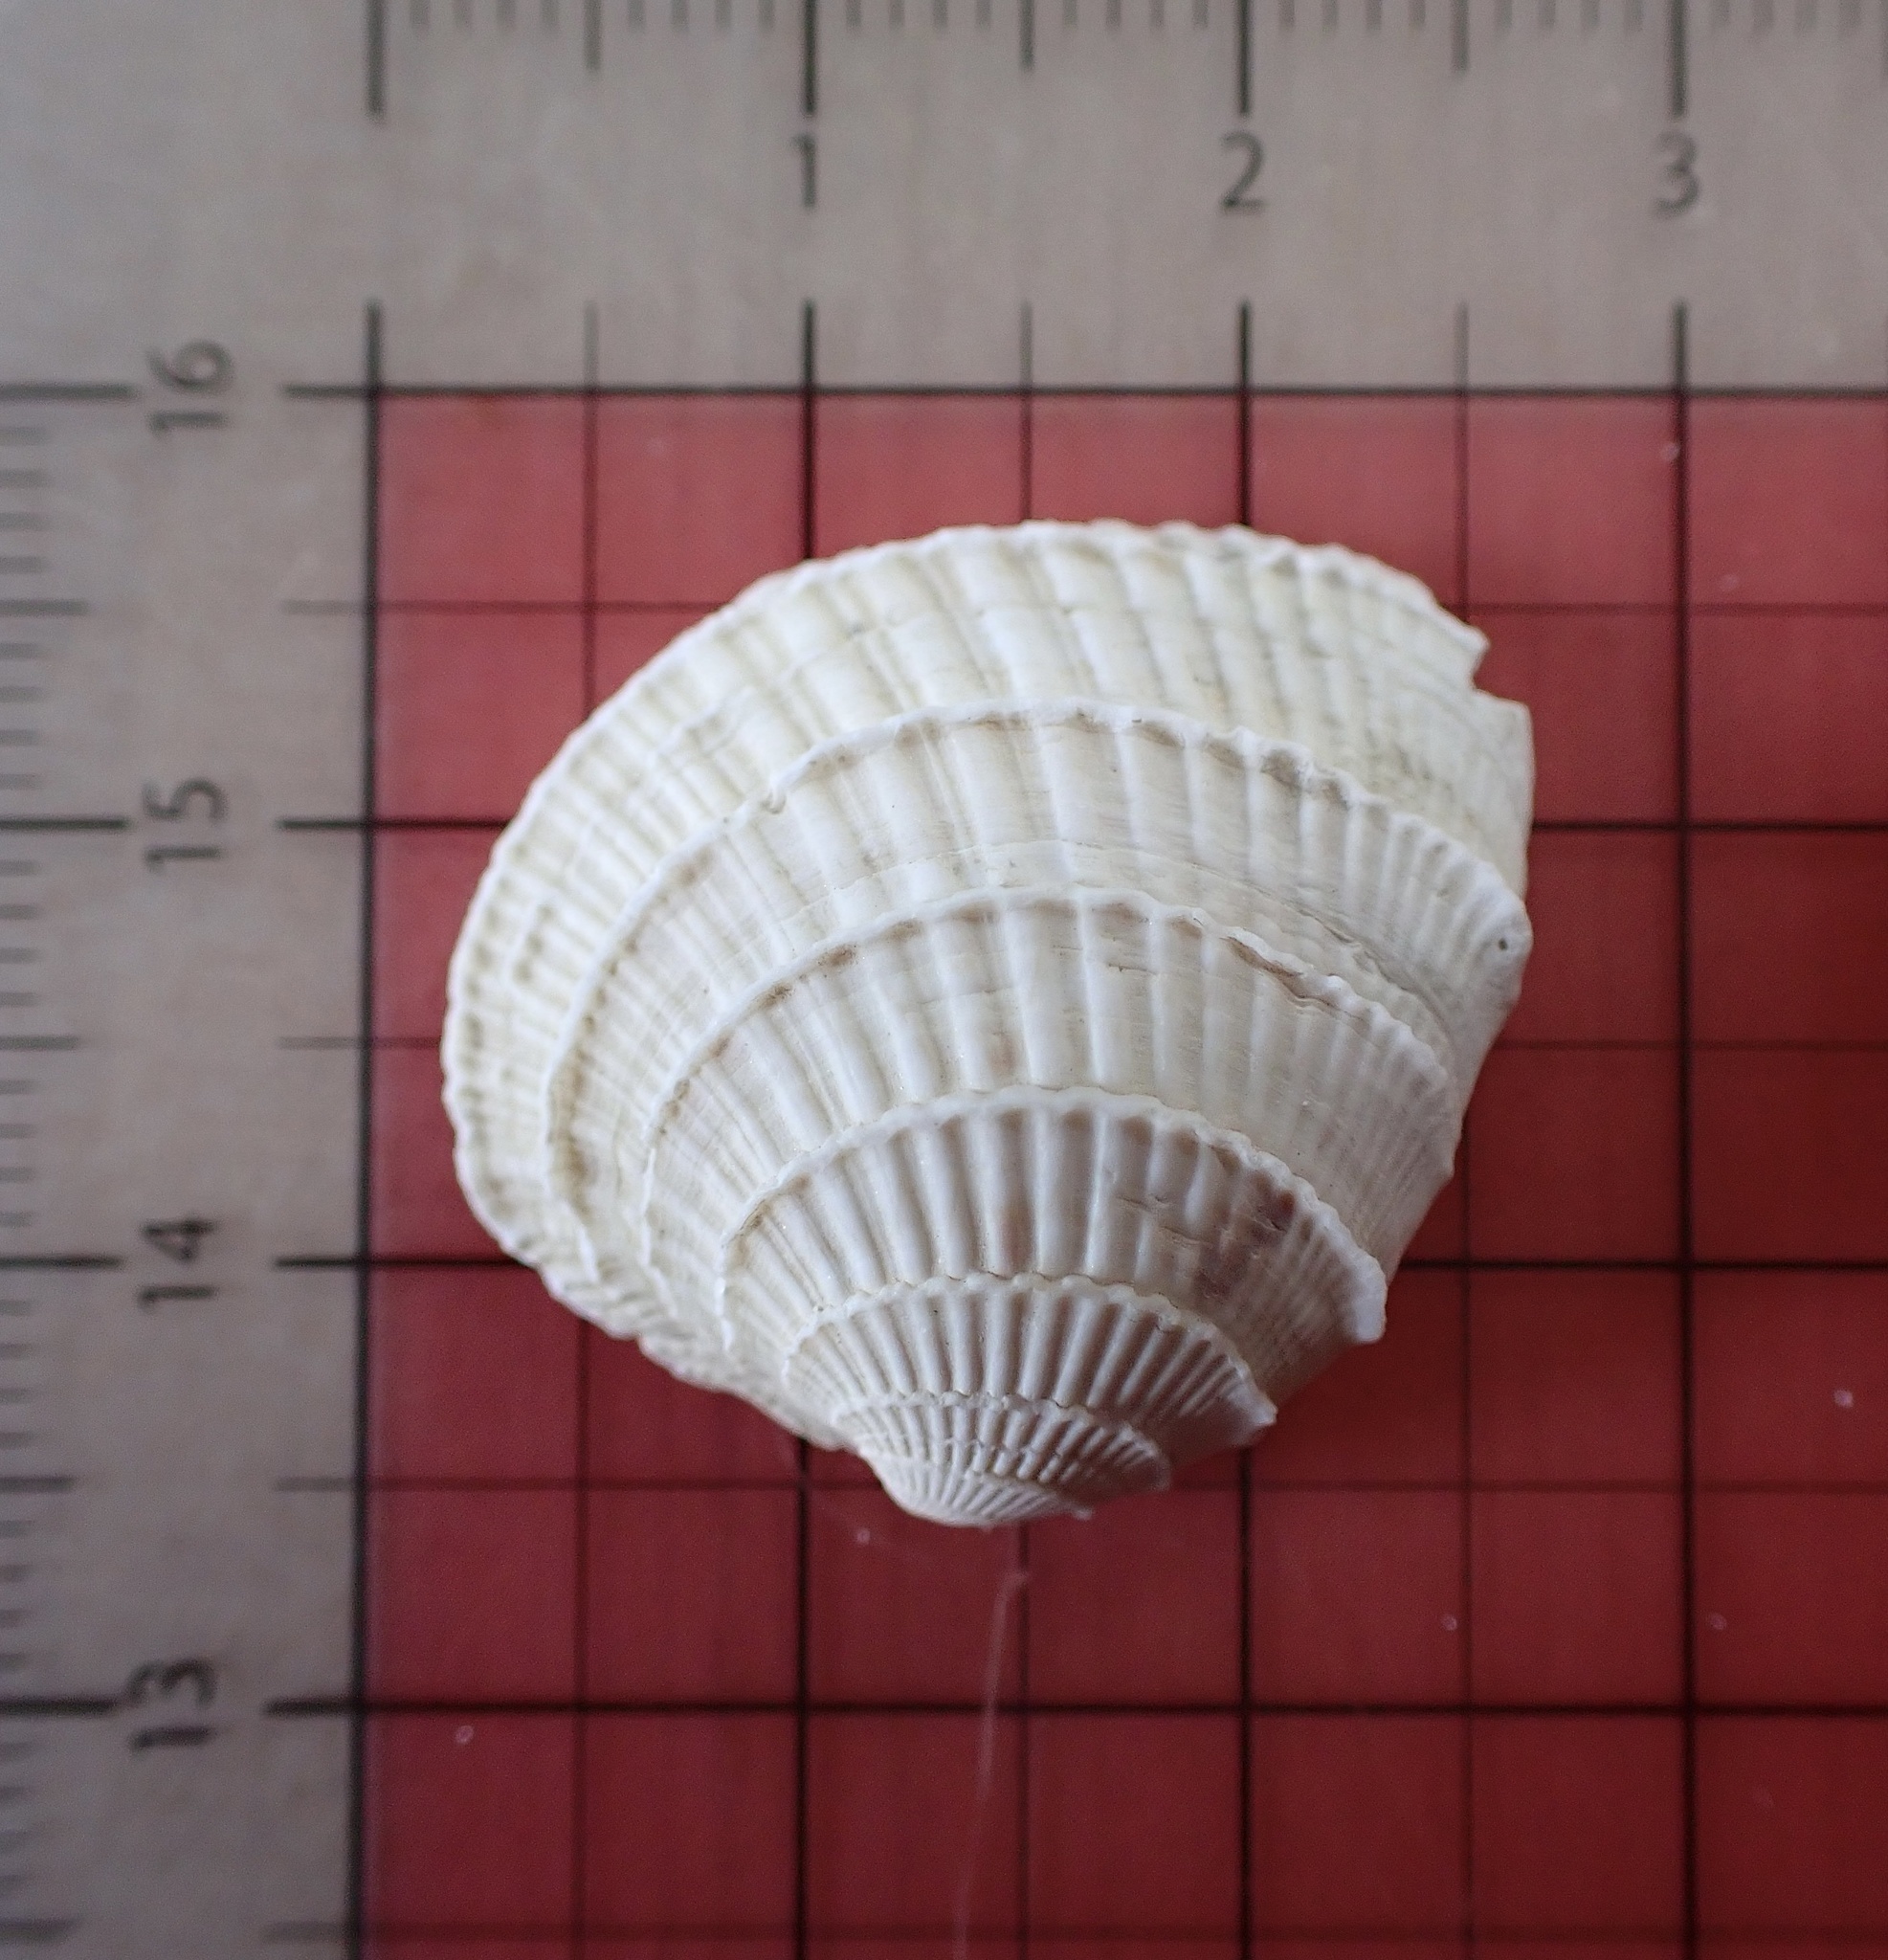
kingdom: Animalia
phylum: Mollusca
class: Bivalvia
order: Venerida
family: Veneridae
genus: Chione
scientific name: Chione elevata
